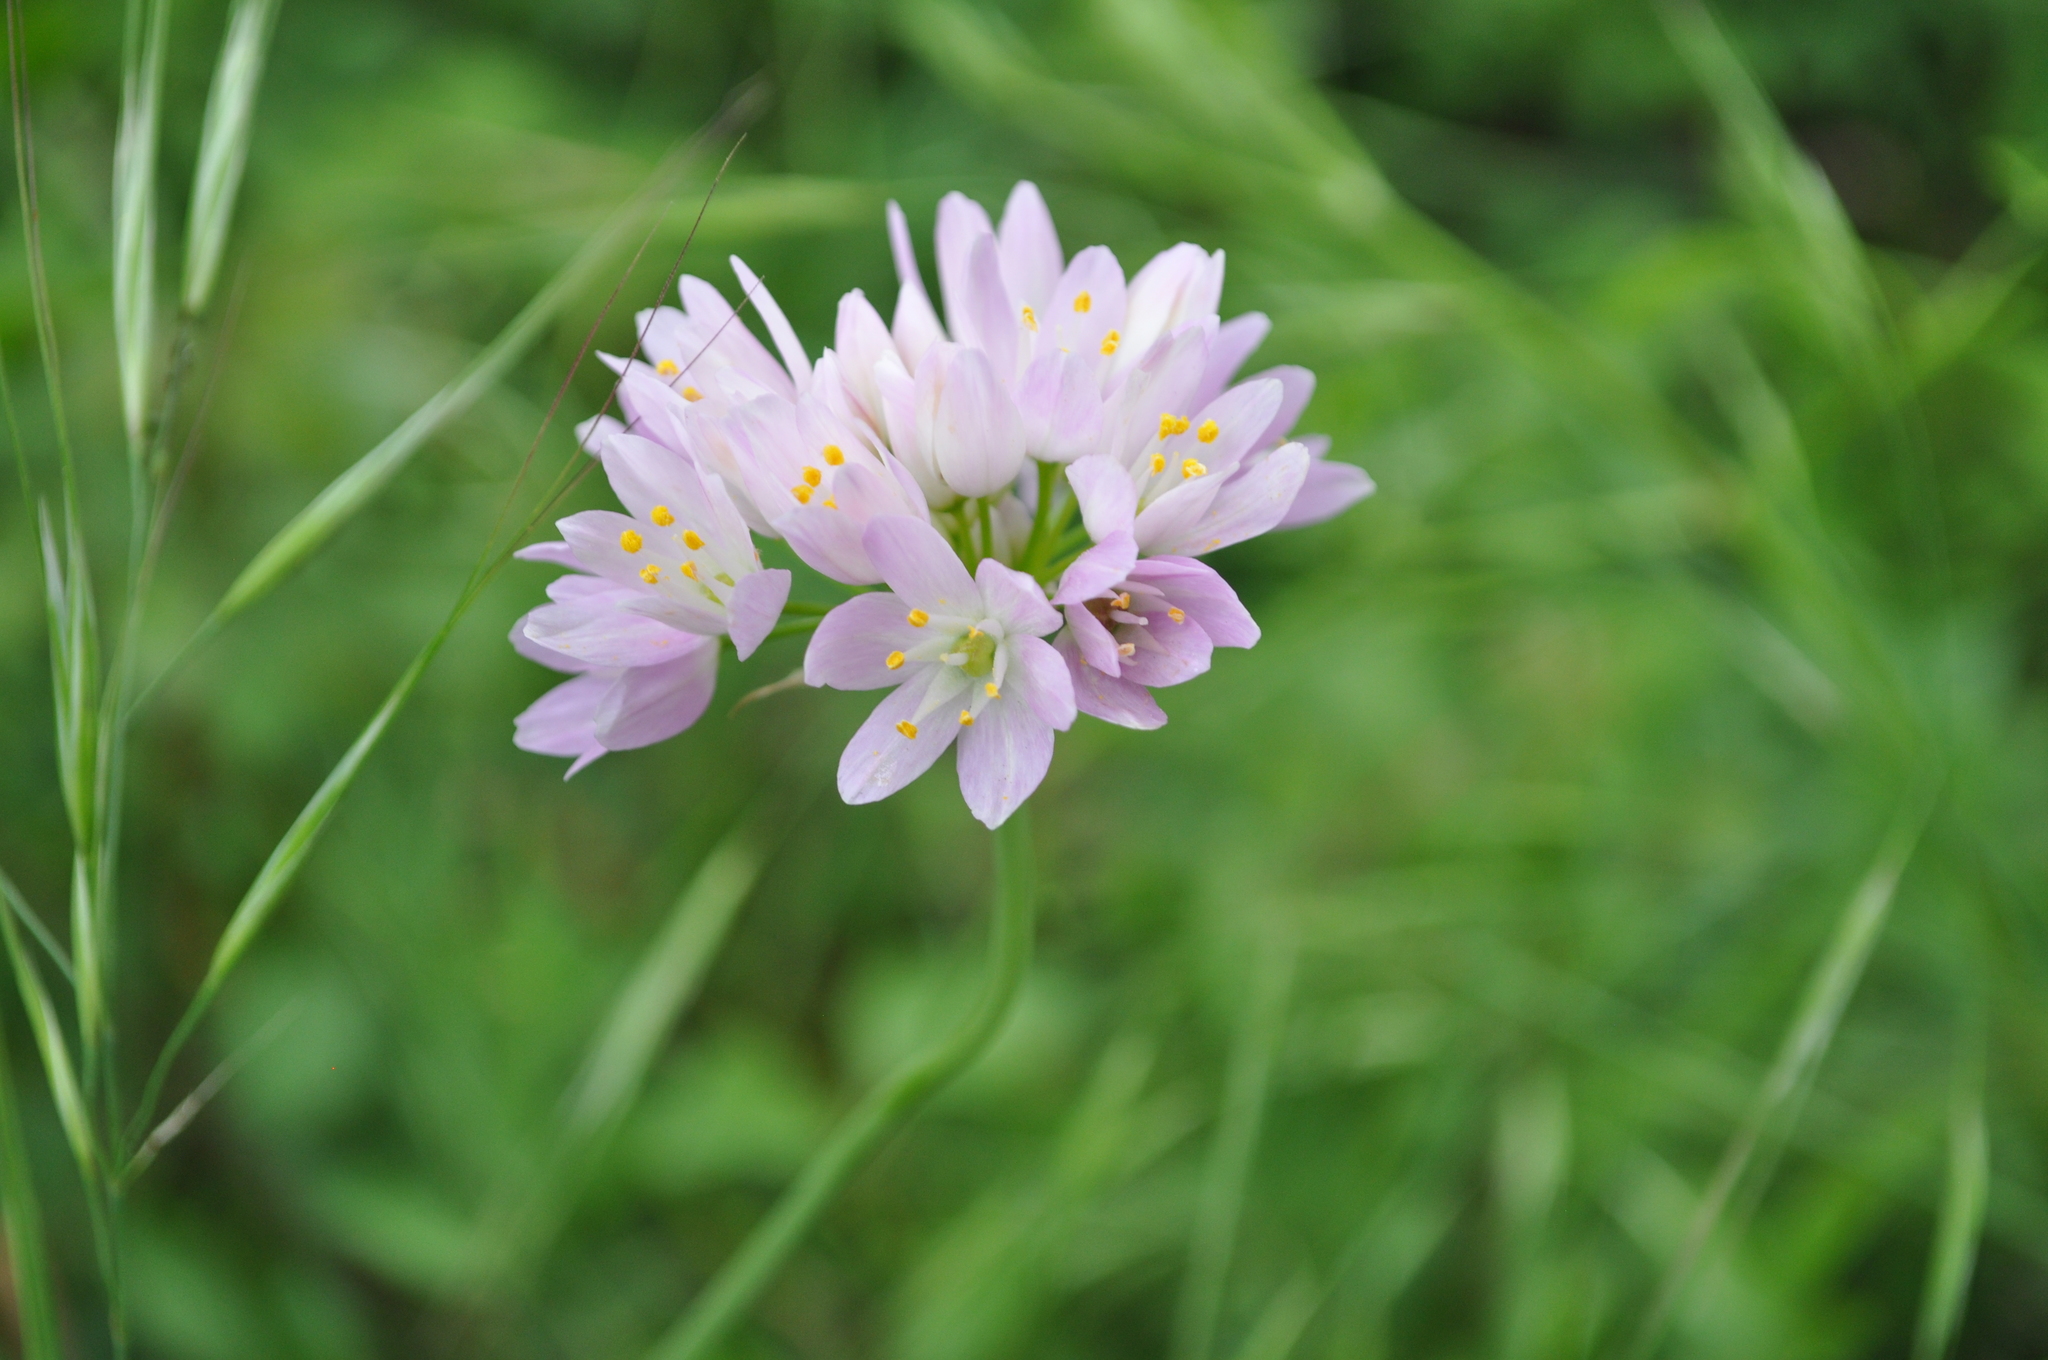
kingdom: Plantae
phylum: Tracheophyta
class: Liliopsida
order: Asparagales
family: Amaryllidaceae
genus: Allium
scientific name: Allium roseum
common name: Rosy garlic
